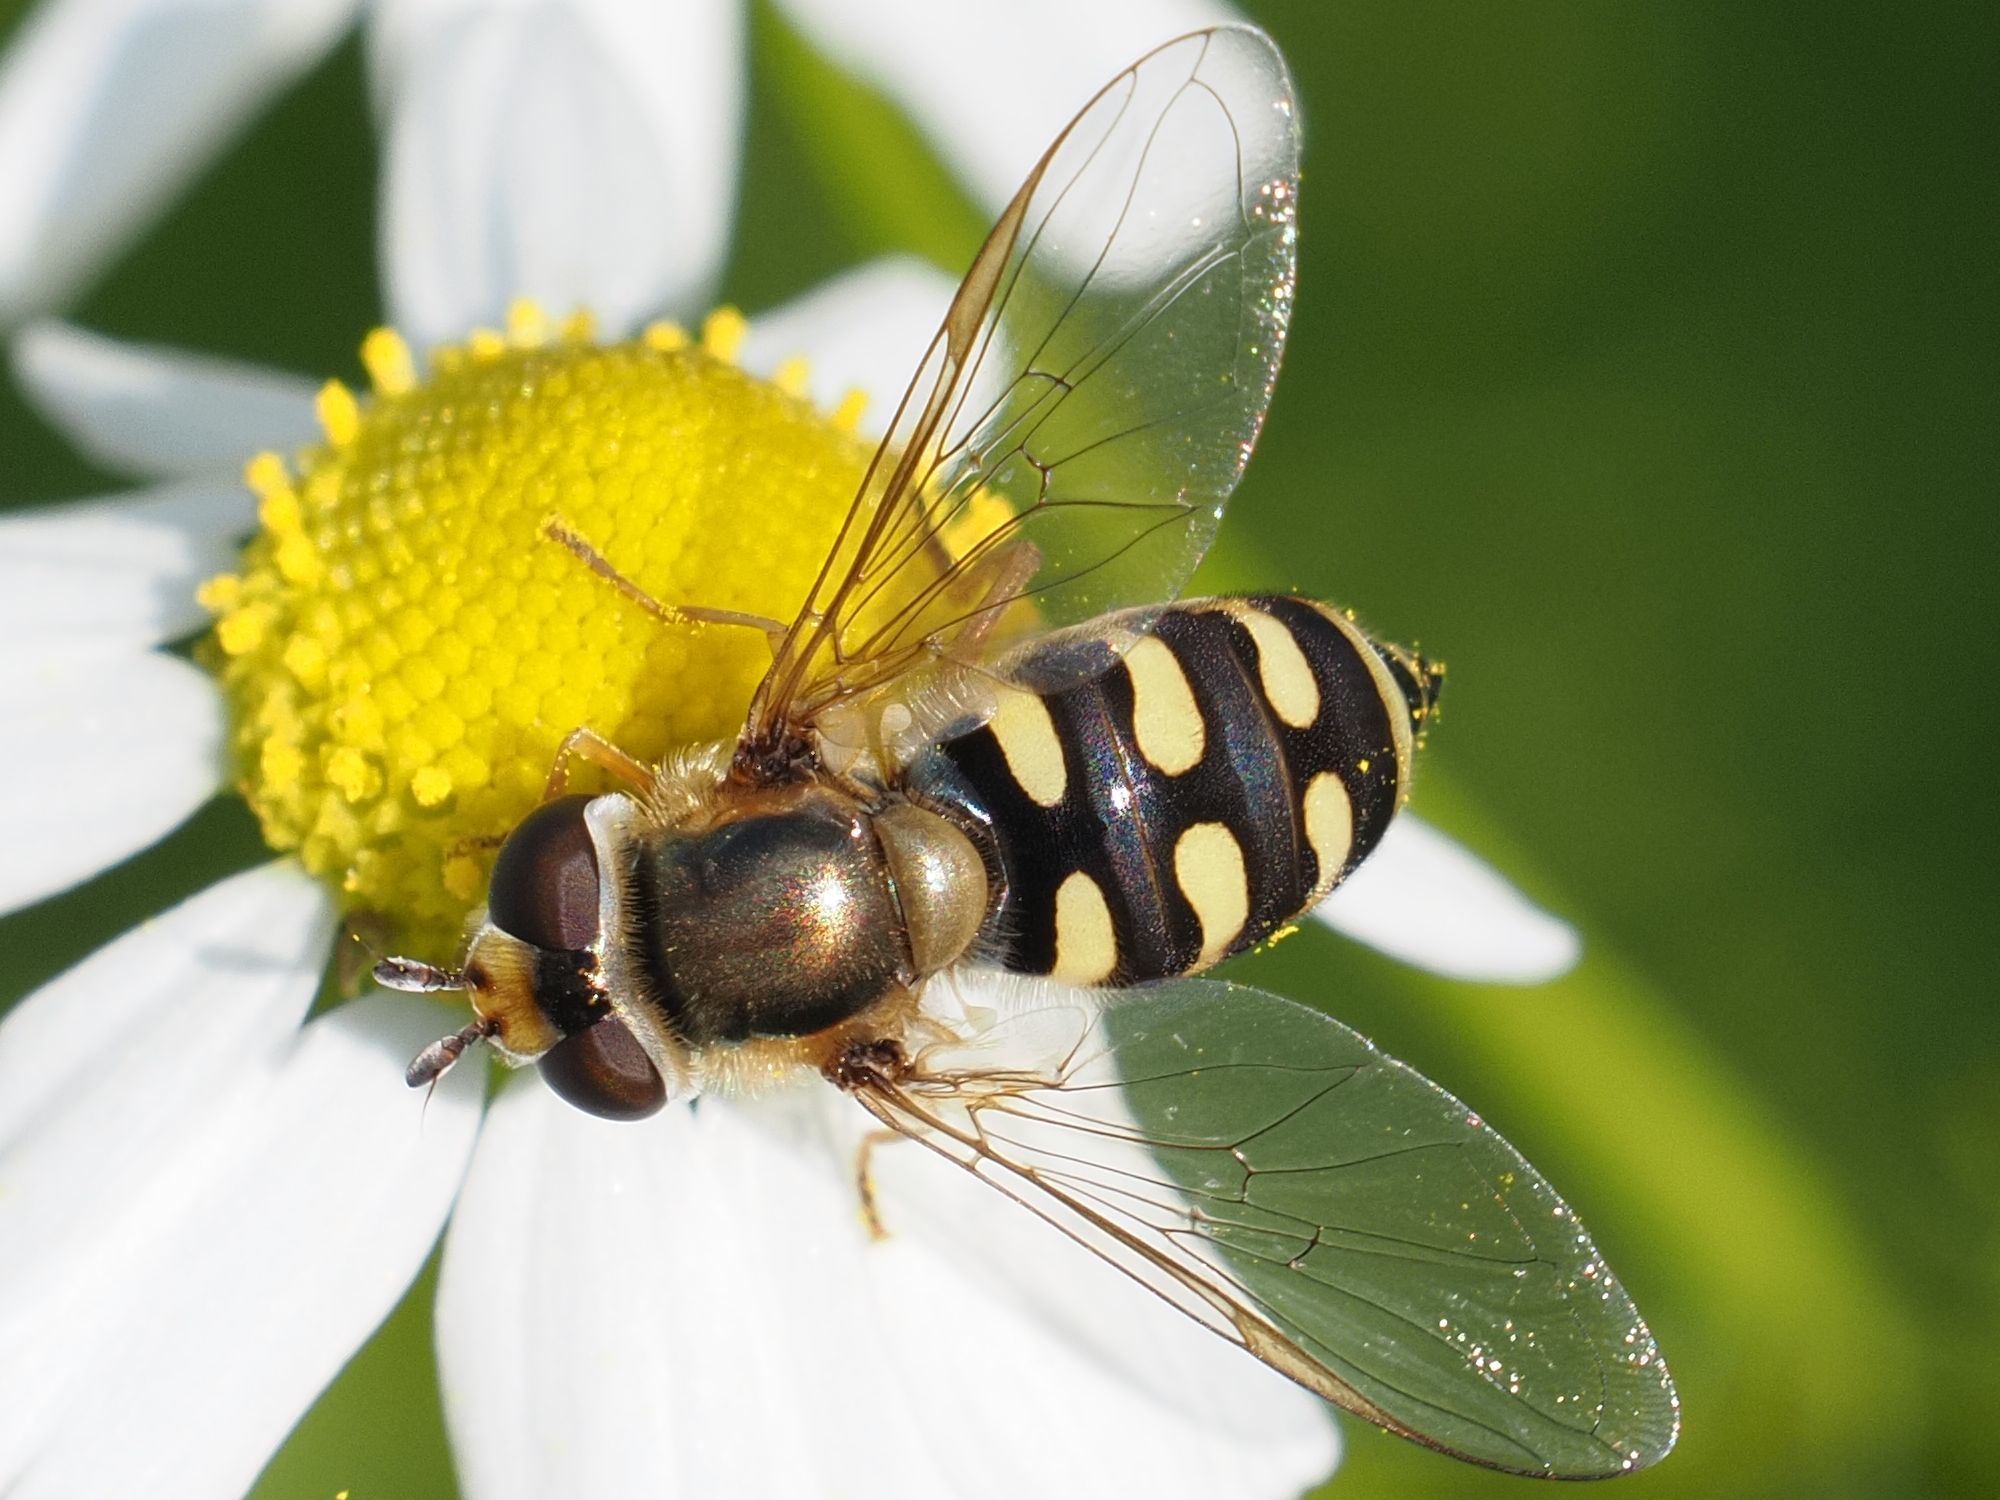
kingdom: Animalia
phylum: Arthropoda
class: Insecta
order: Diptera
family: Syrphidae
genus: Eupeodes
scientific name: Eupeodes corollae
